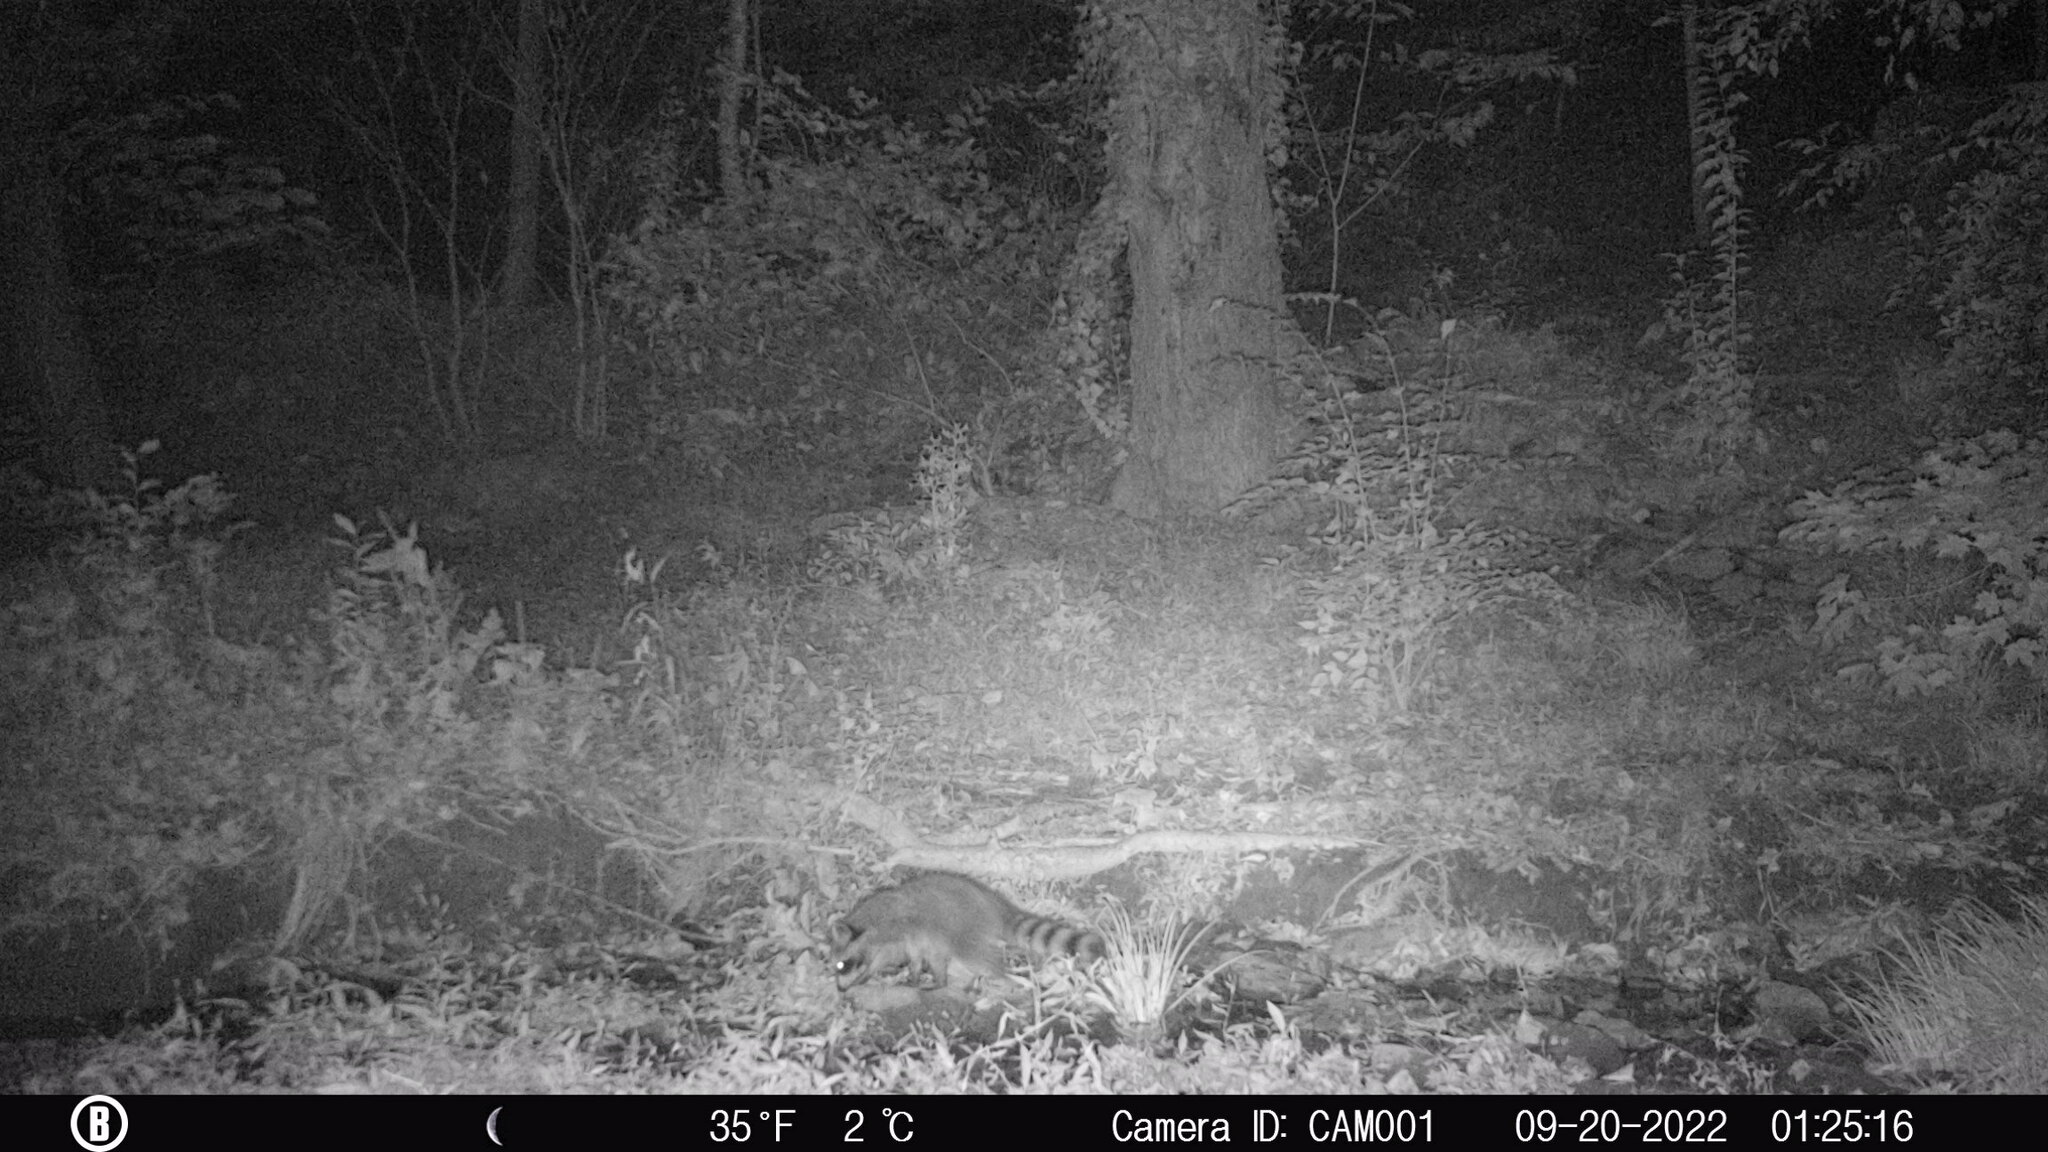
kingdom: Animalia
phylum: Chordata
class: Mammalia
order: Carnivora
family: Procyonidae
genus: Procyon
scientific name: Procyon lotor
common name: Raccoon
